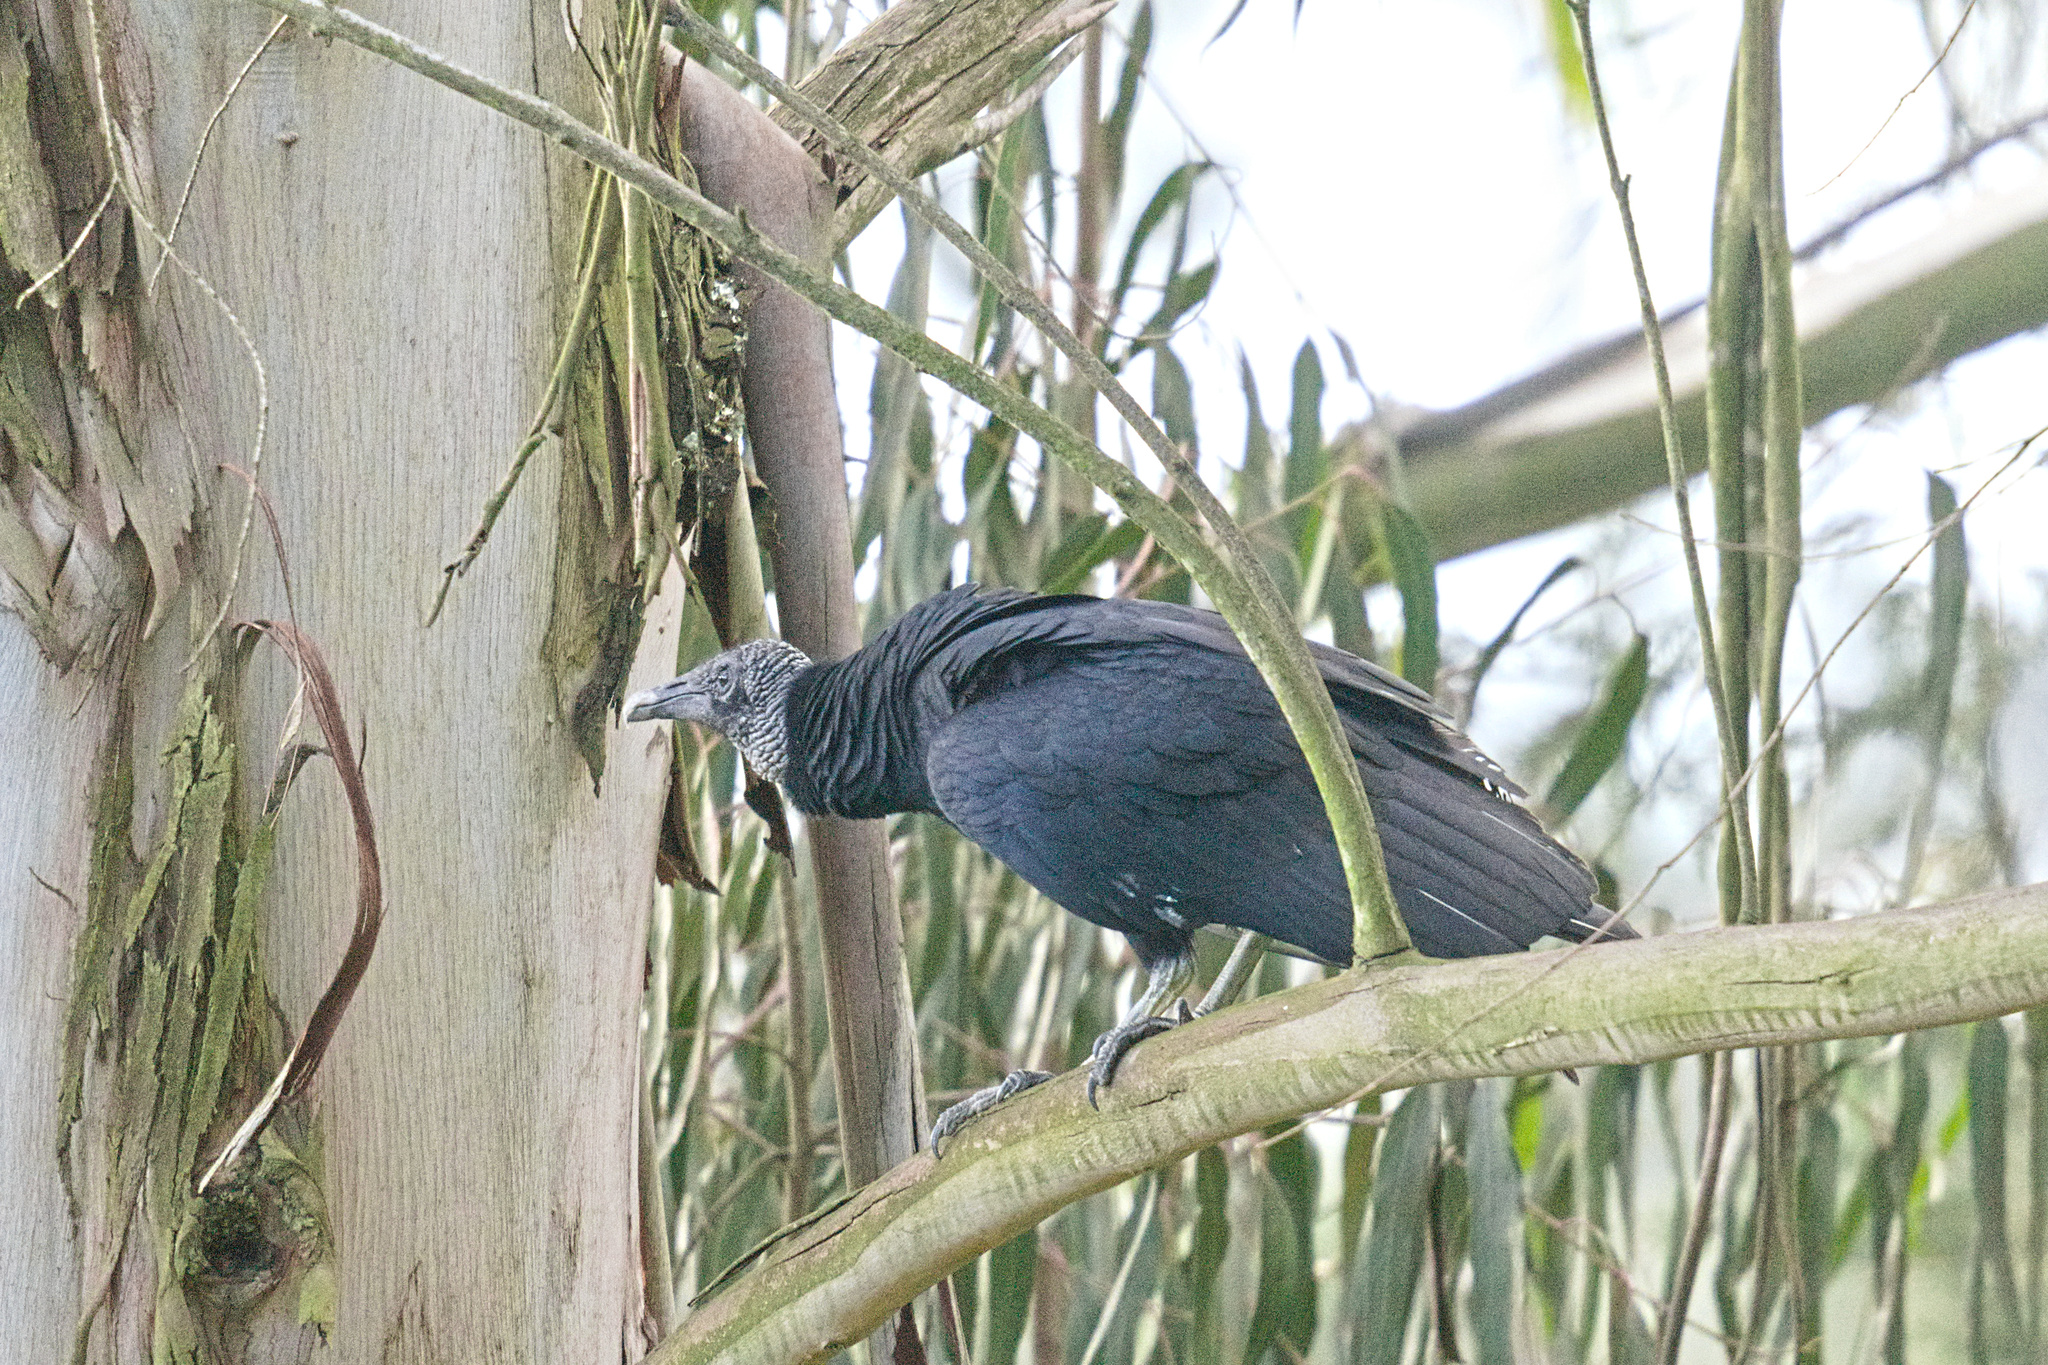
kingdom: Animalia
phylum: Chordata
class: Aves
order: Accipitriformes
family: Cathartidae
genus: Coragyps
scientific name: Coragyps atratus
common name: Black vulture
